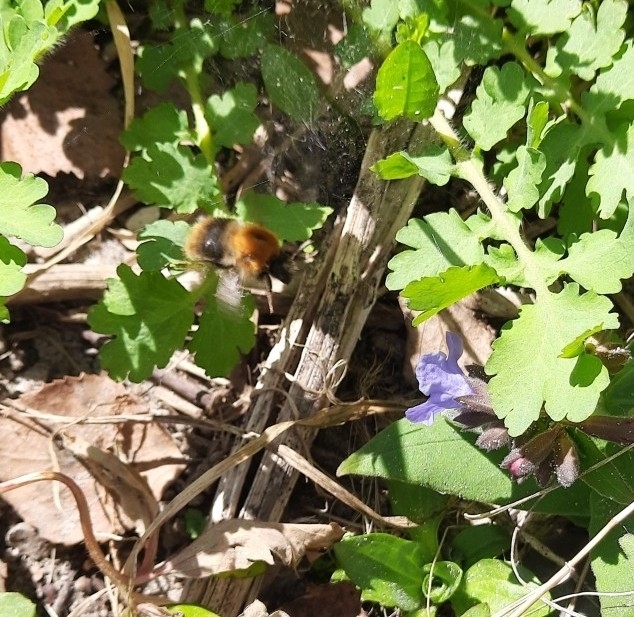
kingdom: Animalia
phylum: Arthropoda
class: Insecta
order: Hymenoptera
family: Apidae
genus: Bombus
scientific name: Bombus pascuorum
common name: Common carder bee
